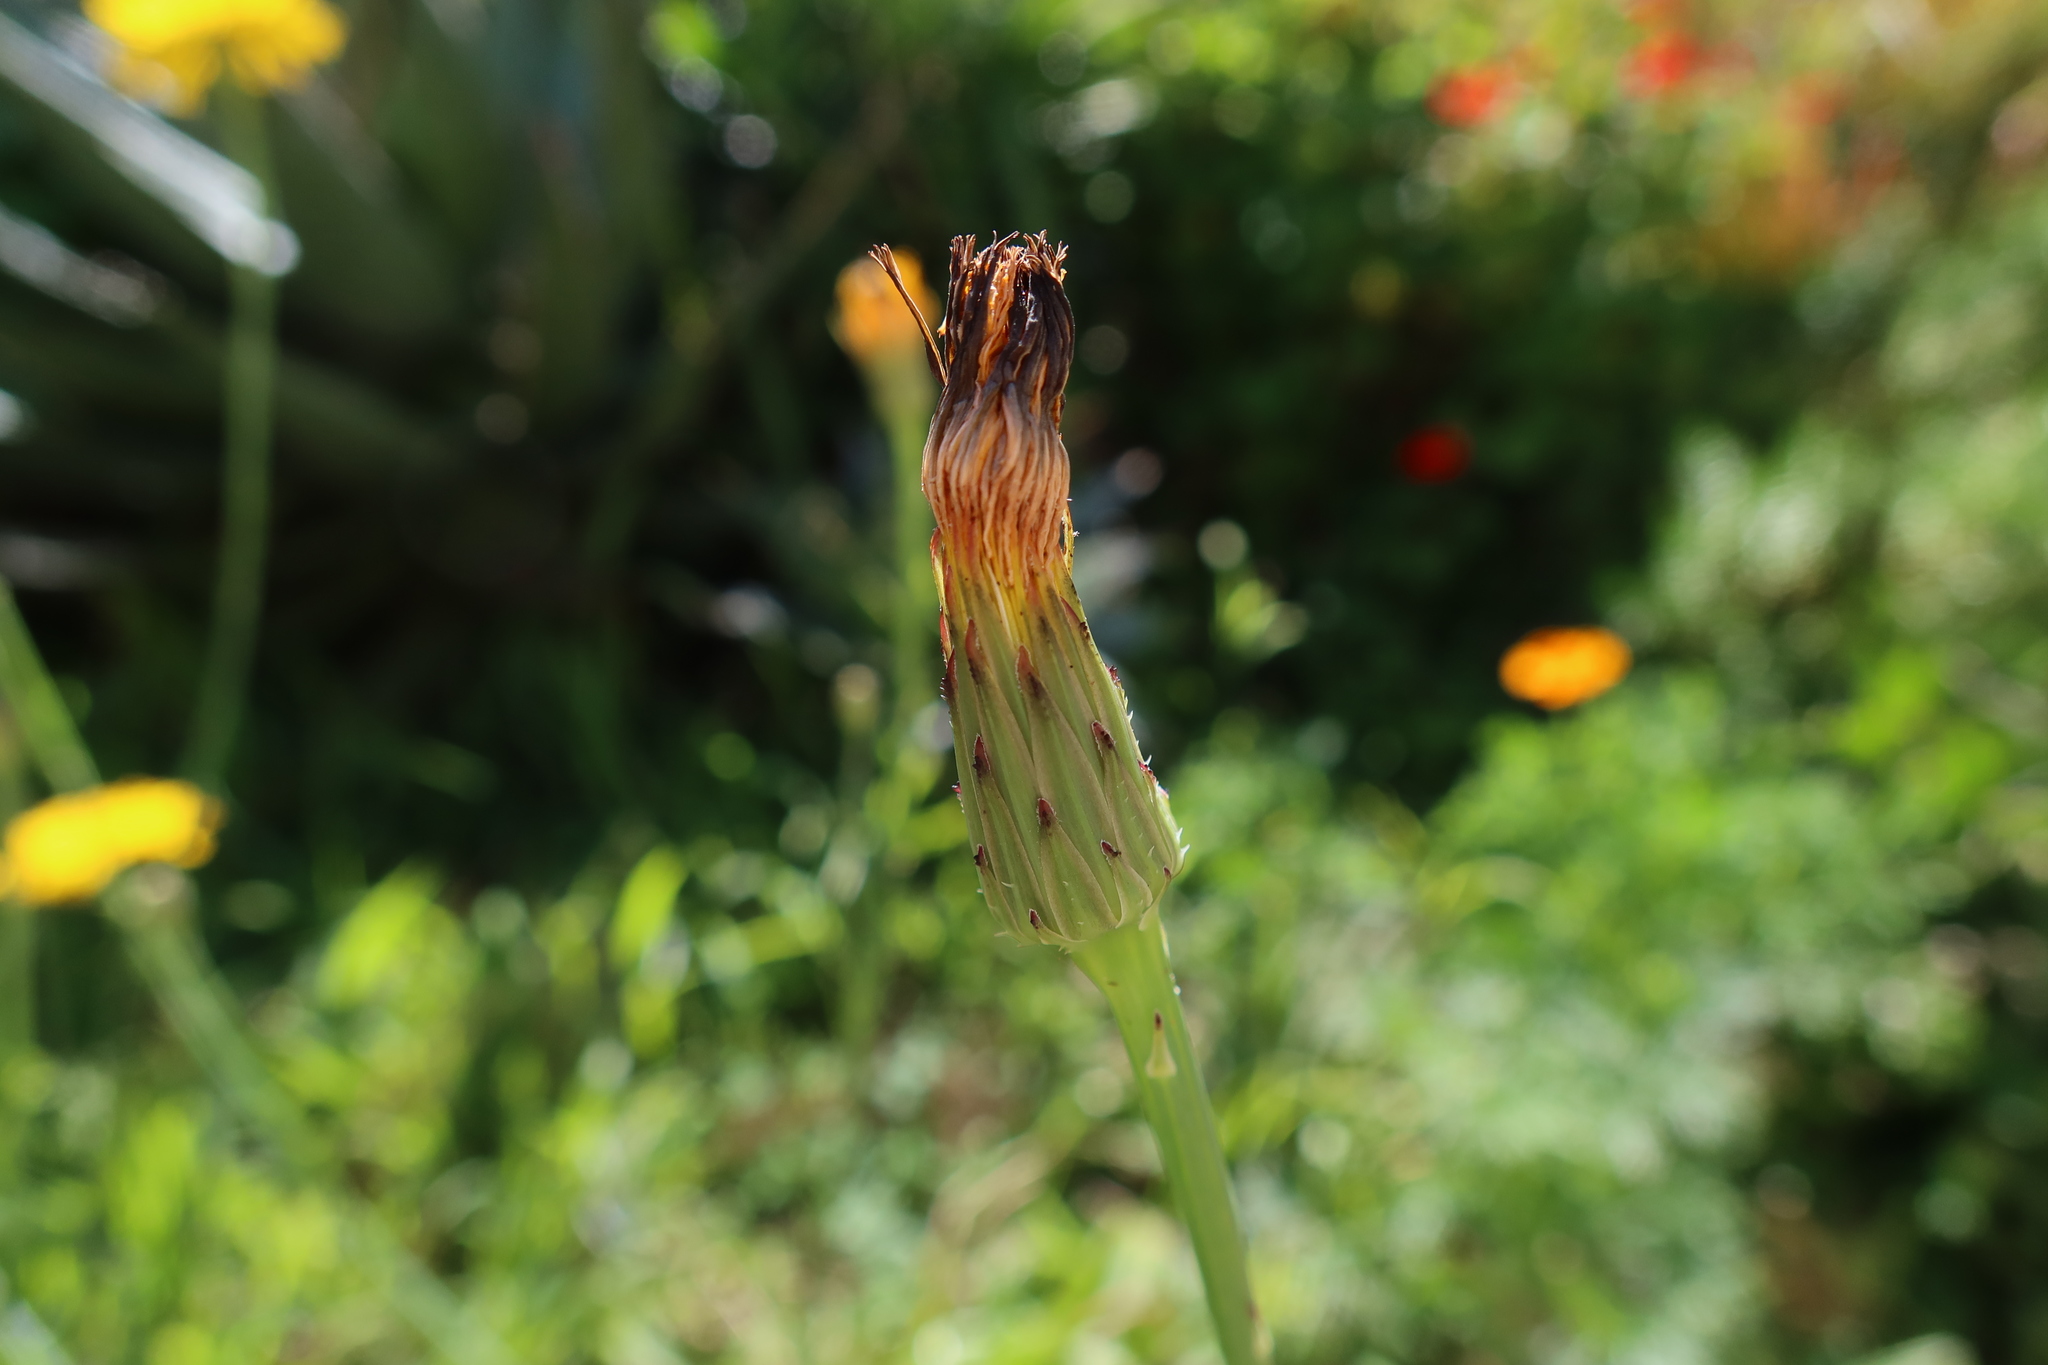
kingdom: Plantae
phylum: Tracheophyta
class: Magnoliopsida
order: Asterales
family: Asteraceae
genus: Hypochaeris
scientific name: Hypochaeris radicata
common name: Flatweed
